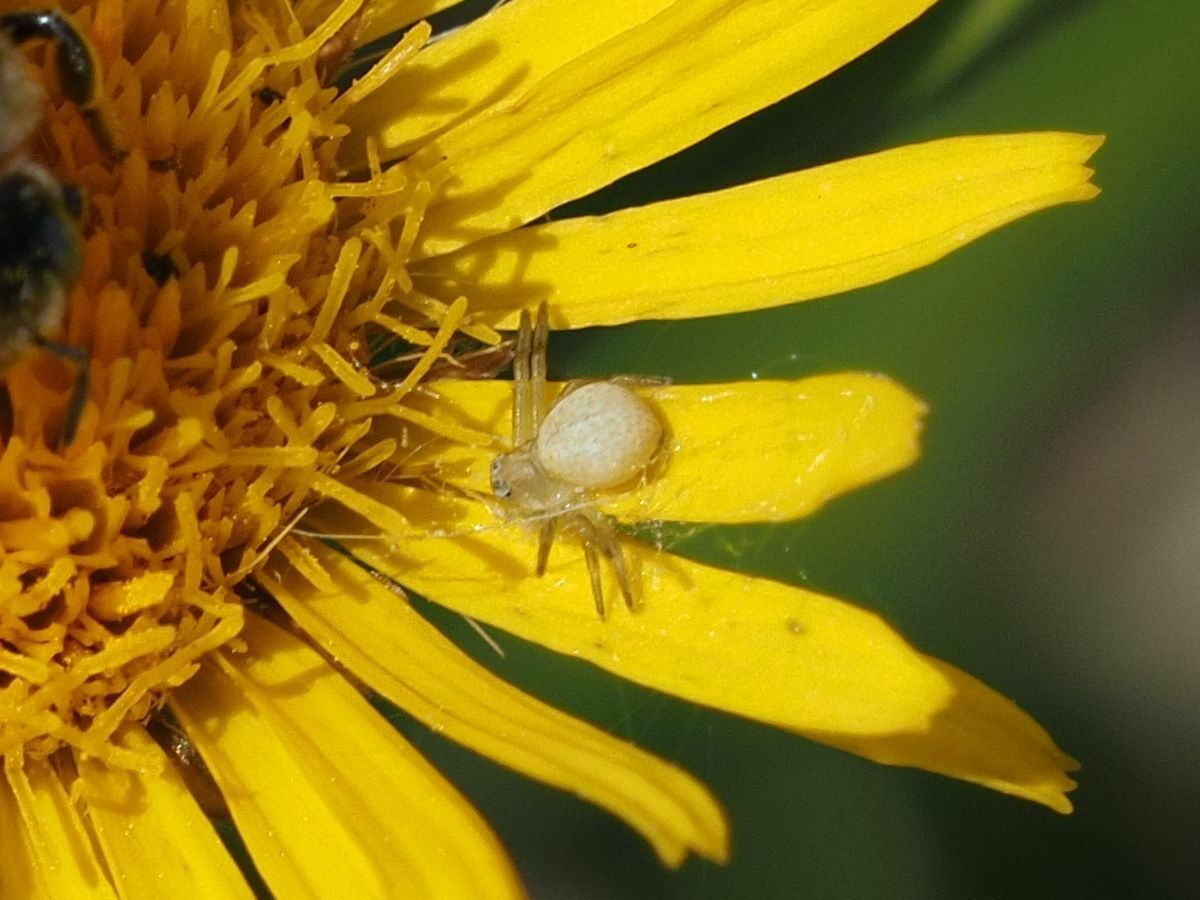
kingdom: Animalia
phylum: Arthropoda
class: Arachnida
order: Araneae
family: Thomisidae
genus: Misumena
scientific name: Misumena vatia
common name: Goldenrod crab spider
